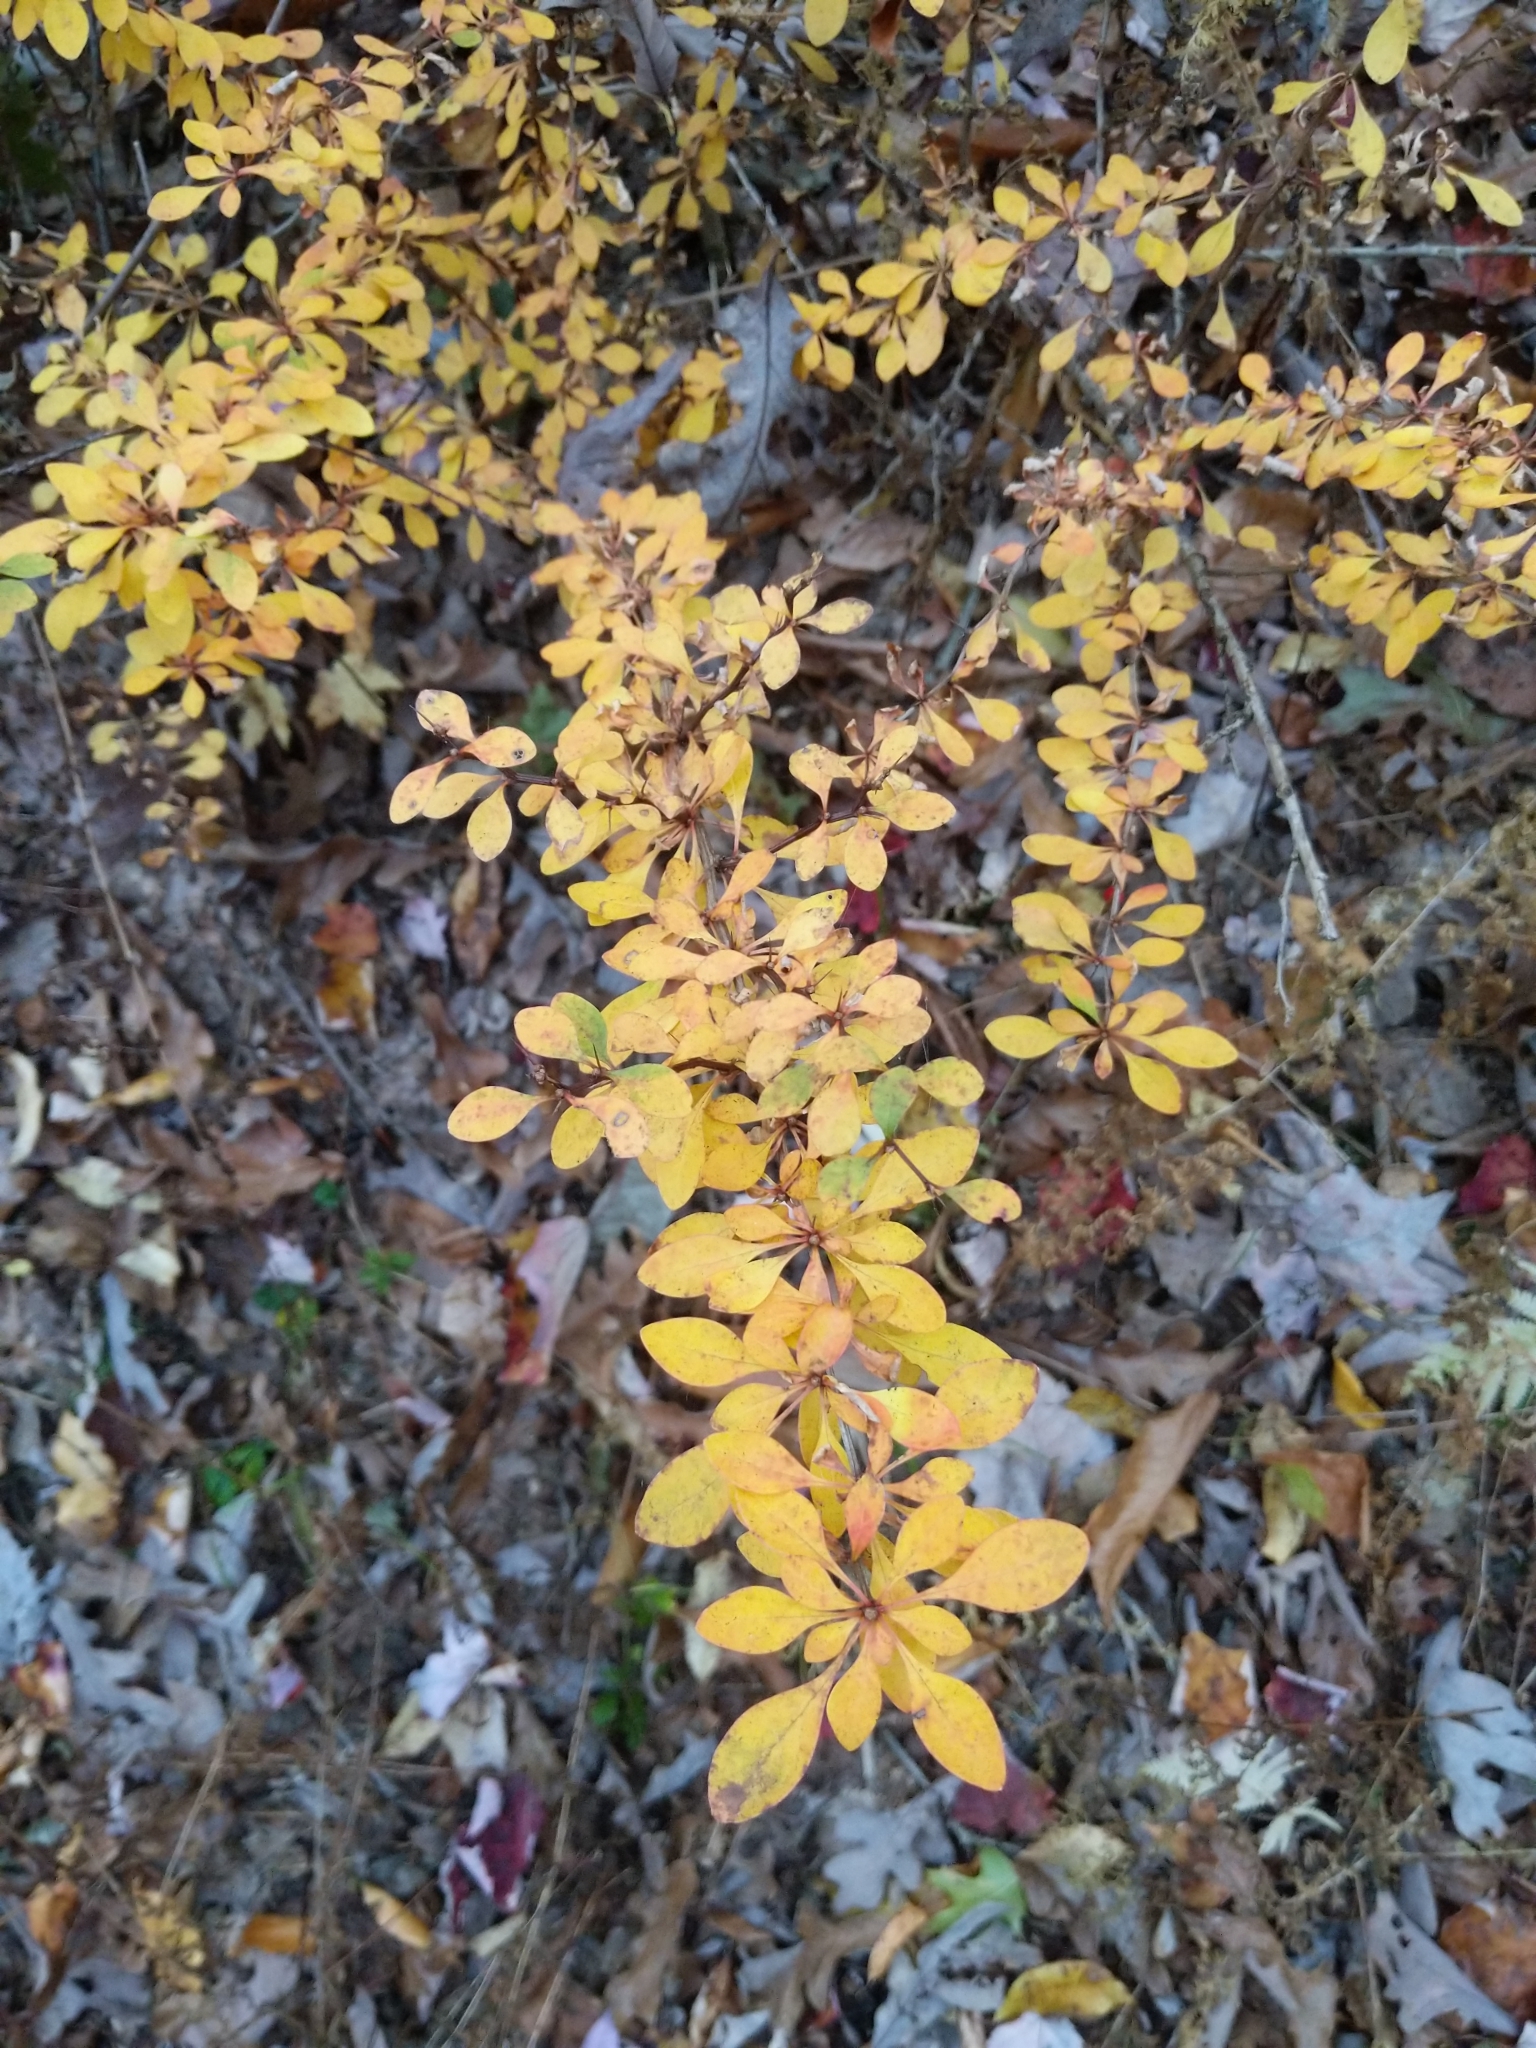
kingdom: Plantae
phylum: Tracheophyta
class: Magnoliopsida
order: Ranunculales
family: Berberidaceae
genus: Berberis
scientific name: Berberis thunbergii
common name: Japanese barberry
